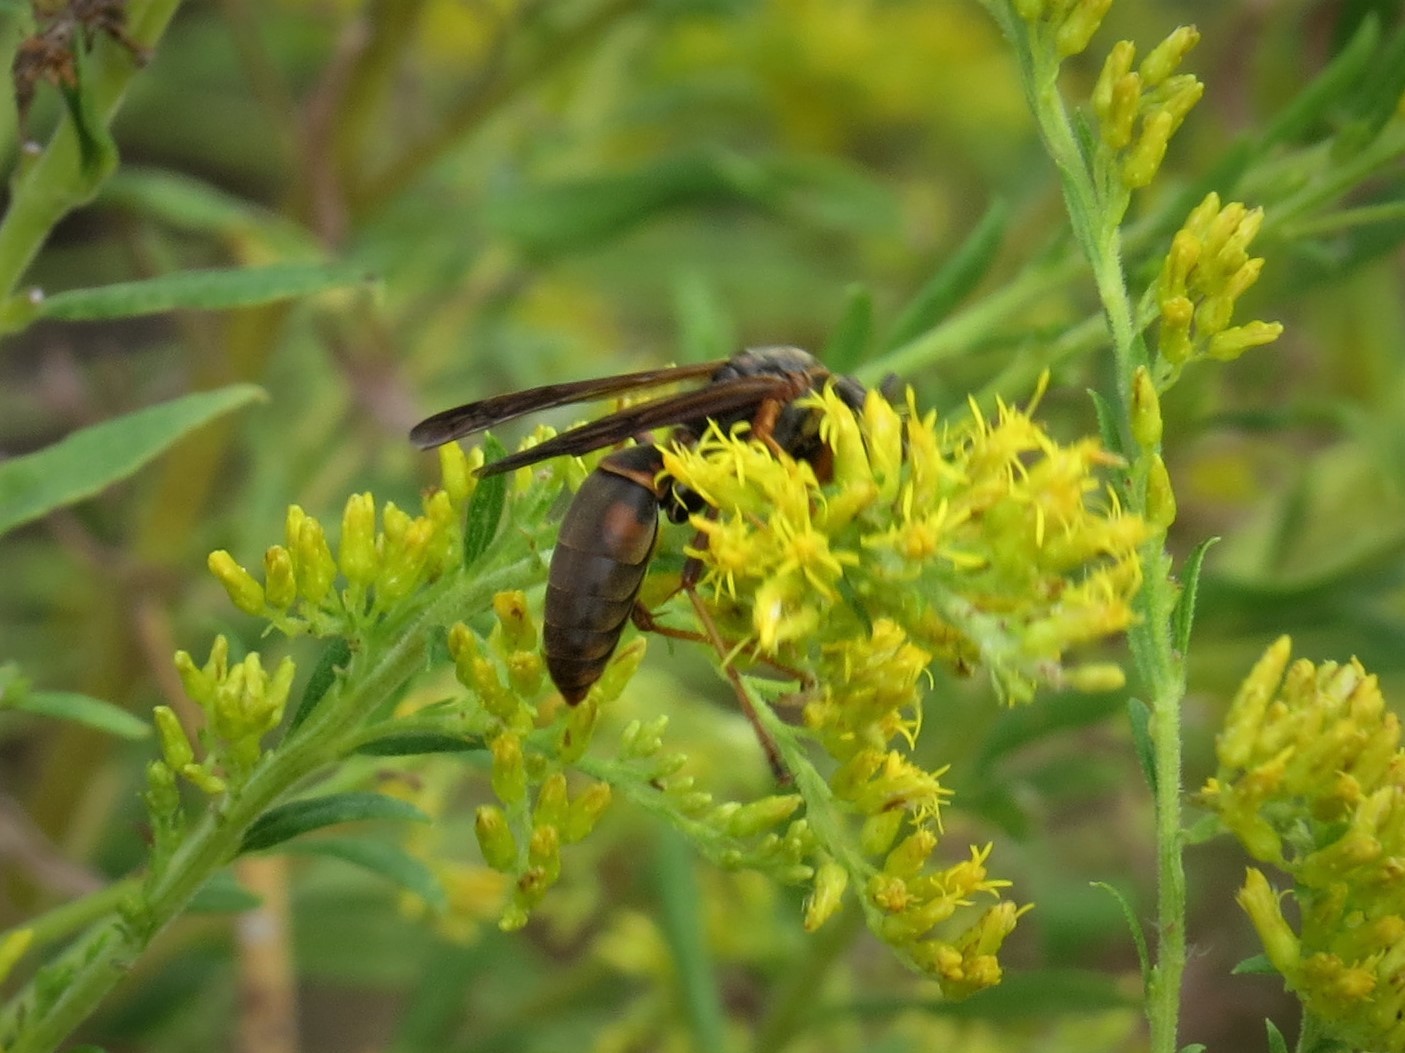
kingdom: Animalia
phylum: Arthropoda
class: Insecta
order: Hymenoptera
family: Eumenidae
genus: Polistes
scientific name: Polistes fuscatus
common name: Dark paper wasp
